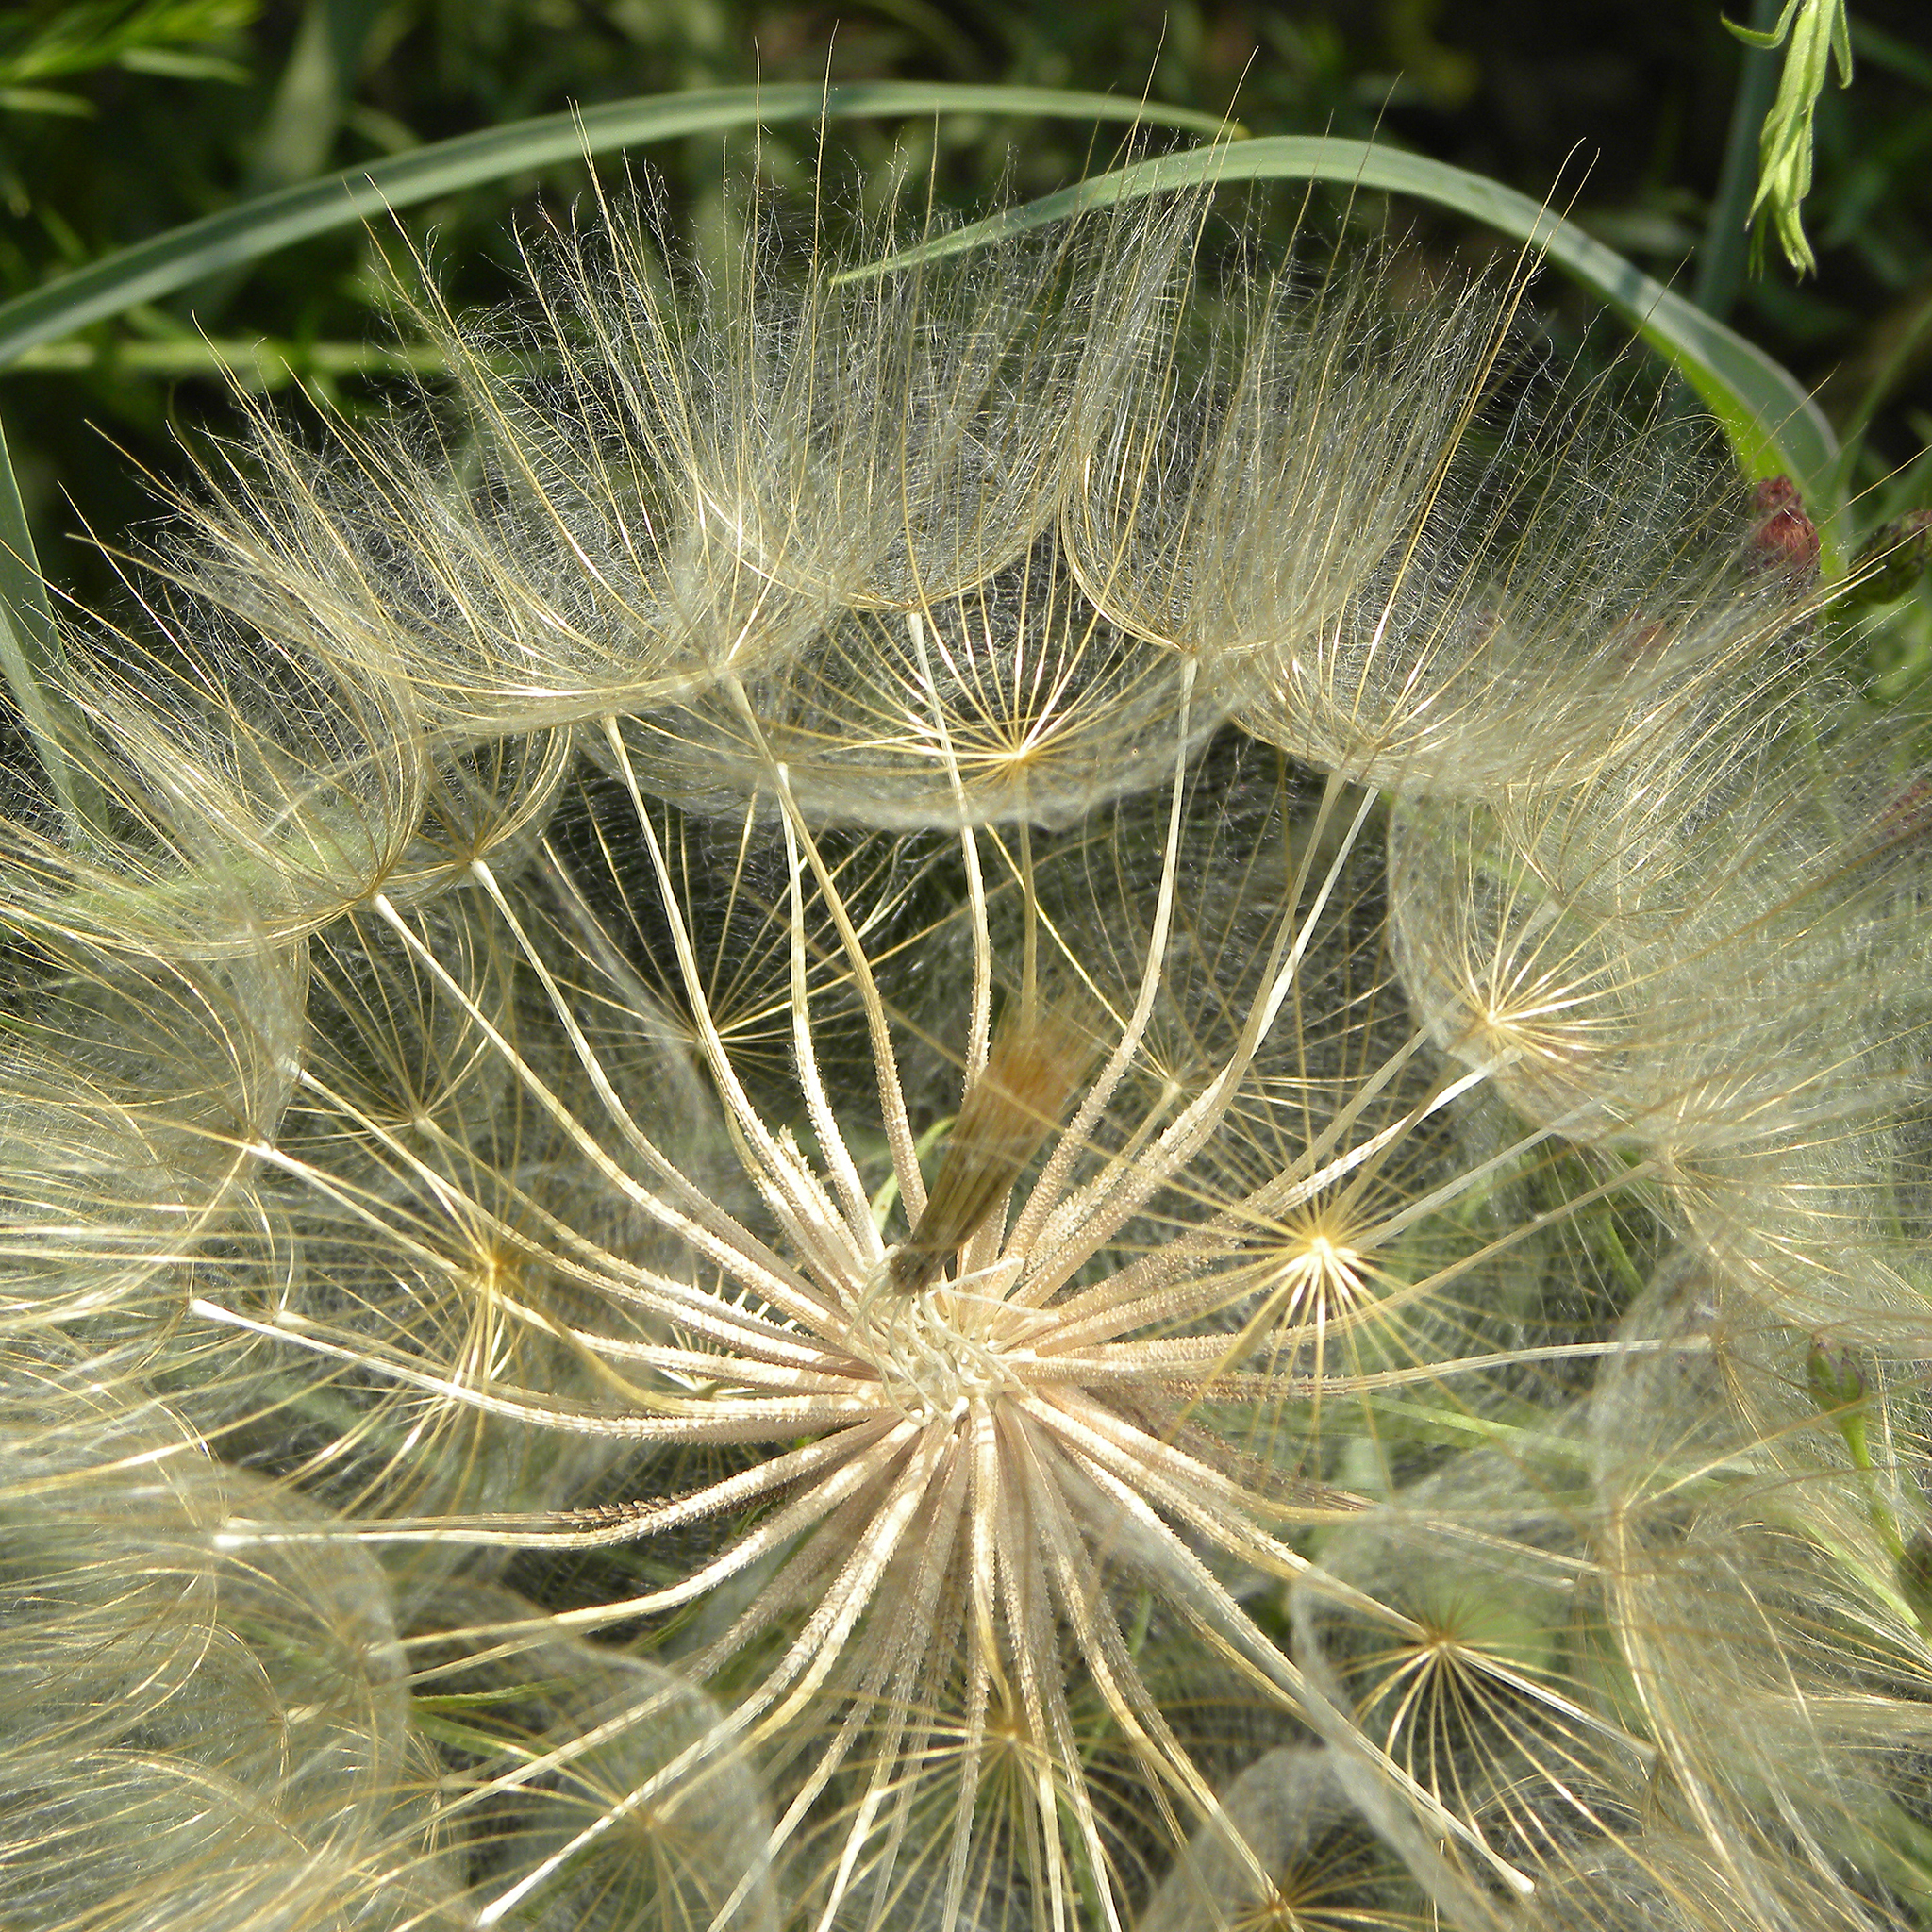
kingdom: Plantae
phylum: Tracheophyta
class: Magnoliopsida
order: Asterales
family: Asteraceae
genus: Tragopogon
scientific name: Tragopogon dubius
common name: Yellow salsify
